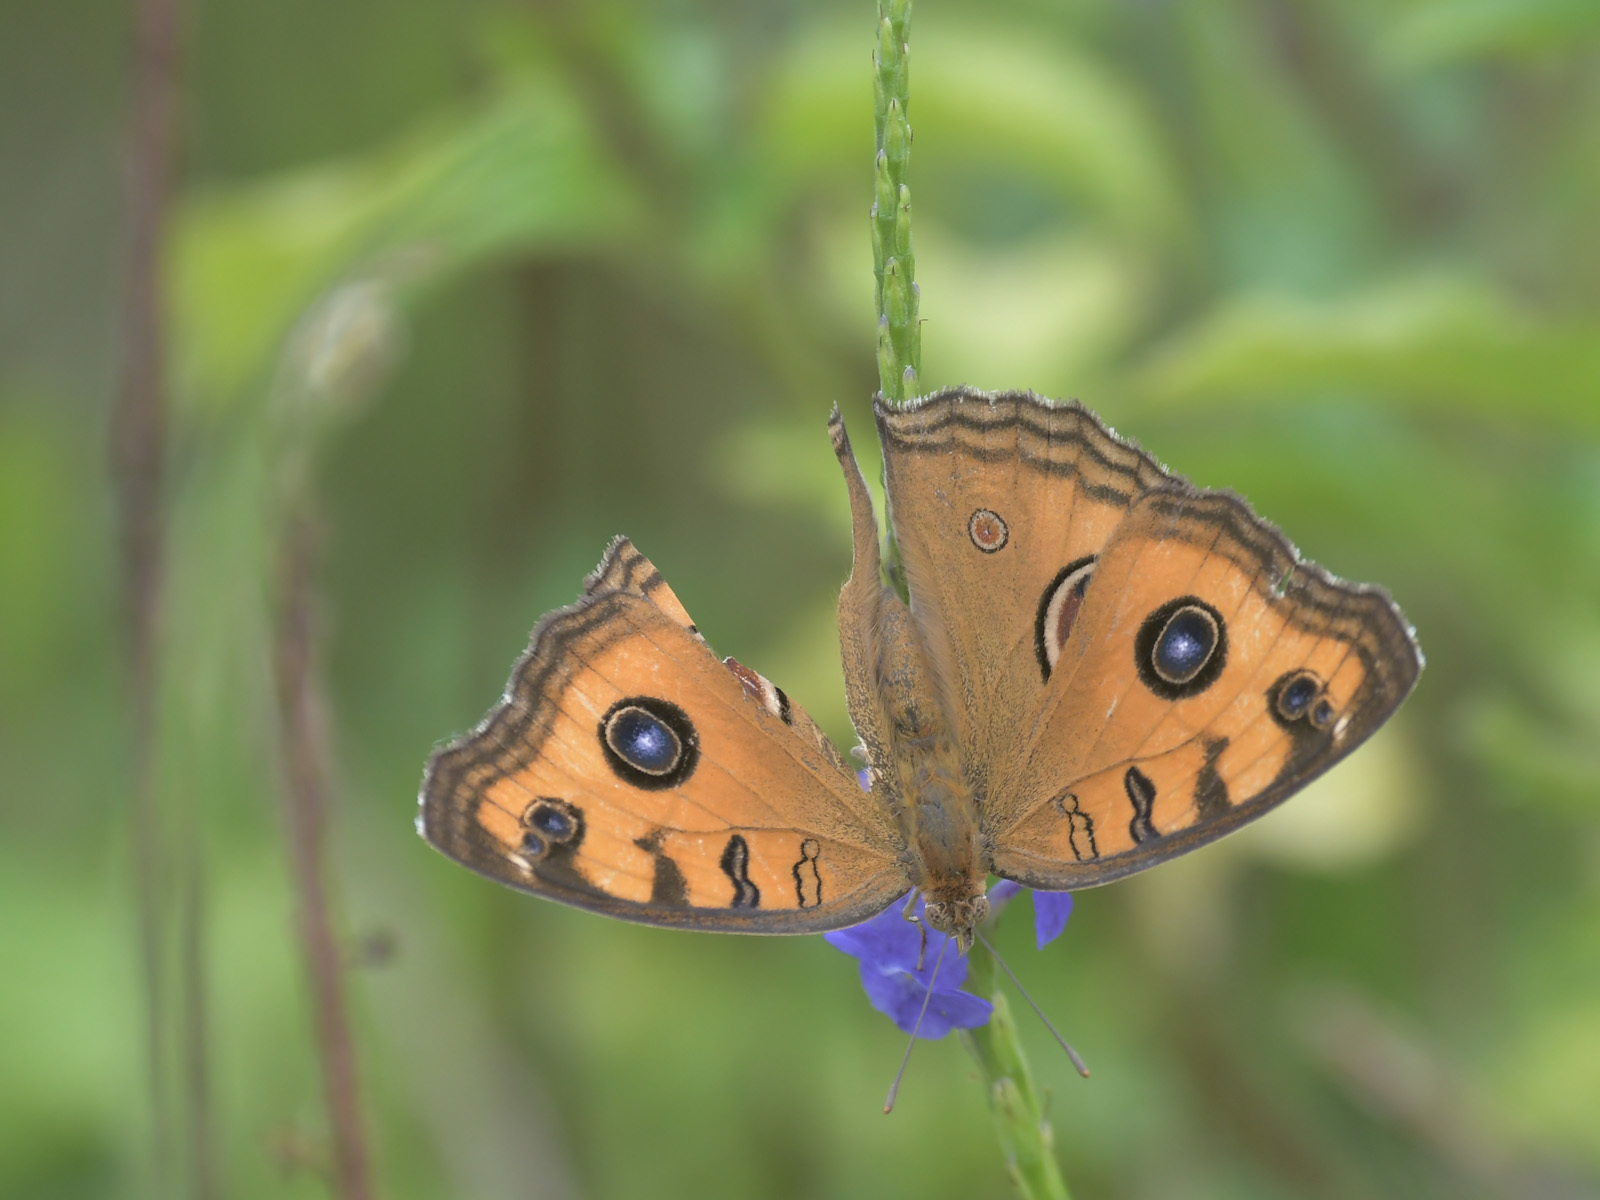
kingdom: Animalia
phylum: Arthropoda
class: Insecta
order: Lepidoptera
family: Nymphalidae
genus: Junonia
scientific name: Junonia almana
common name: Peacock pansy
